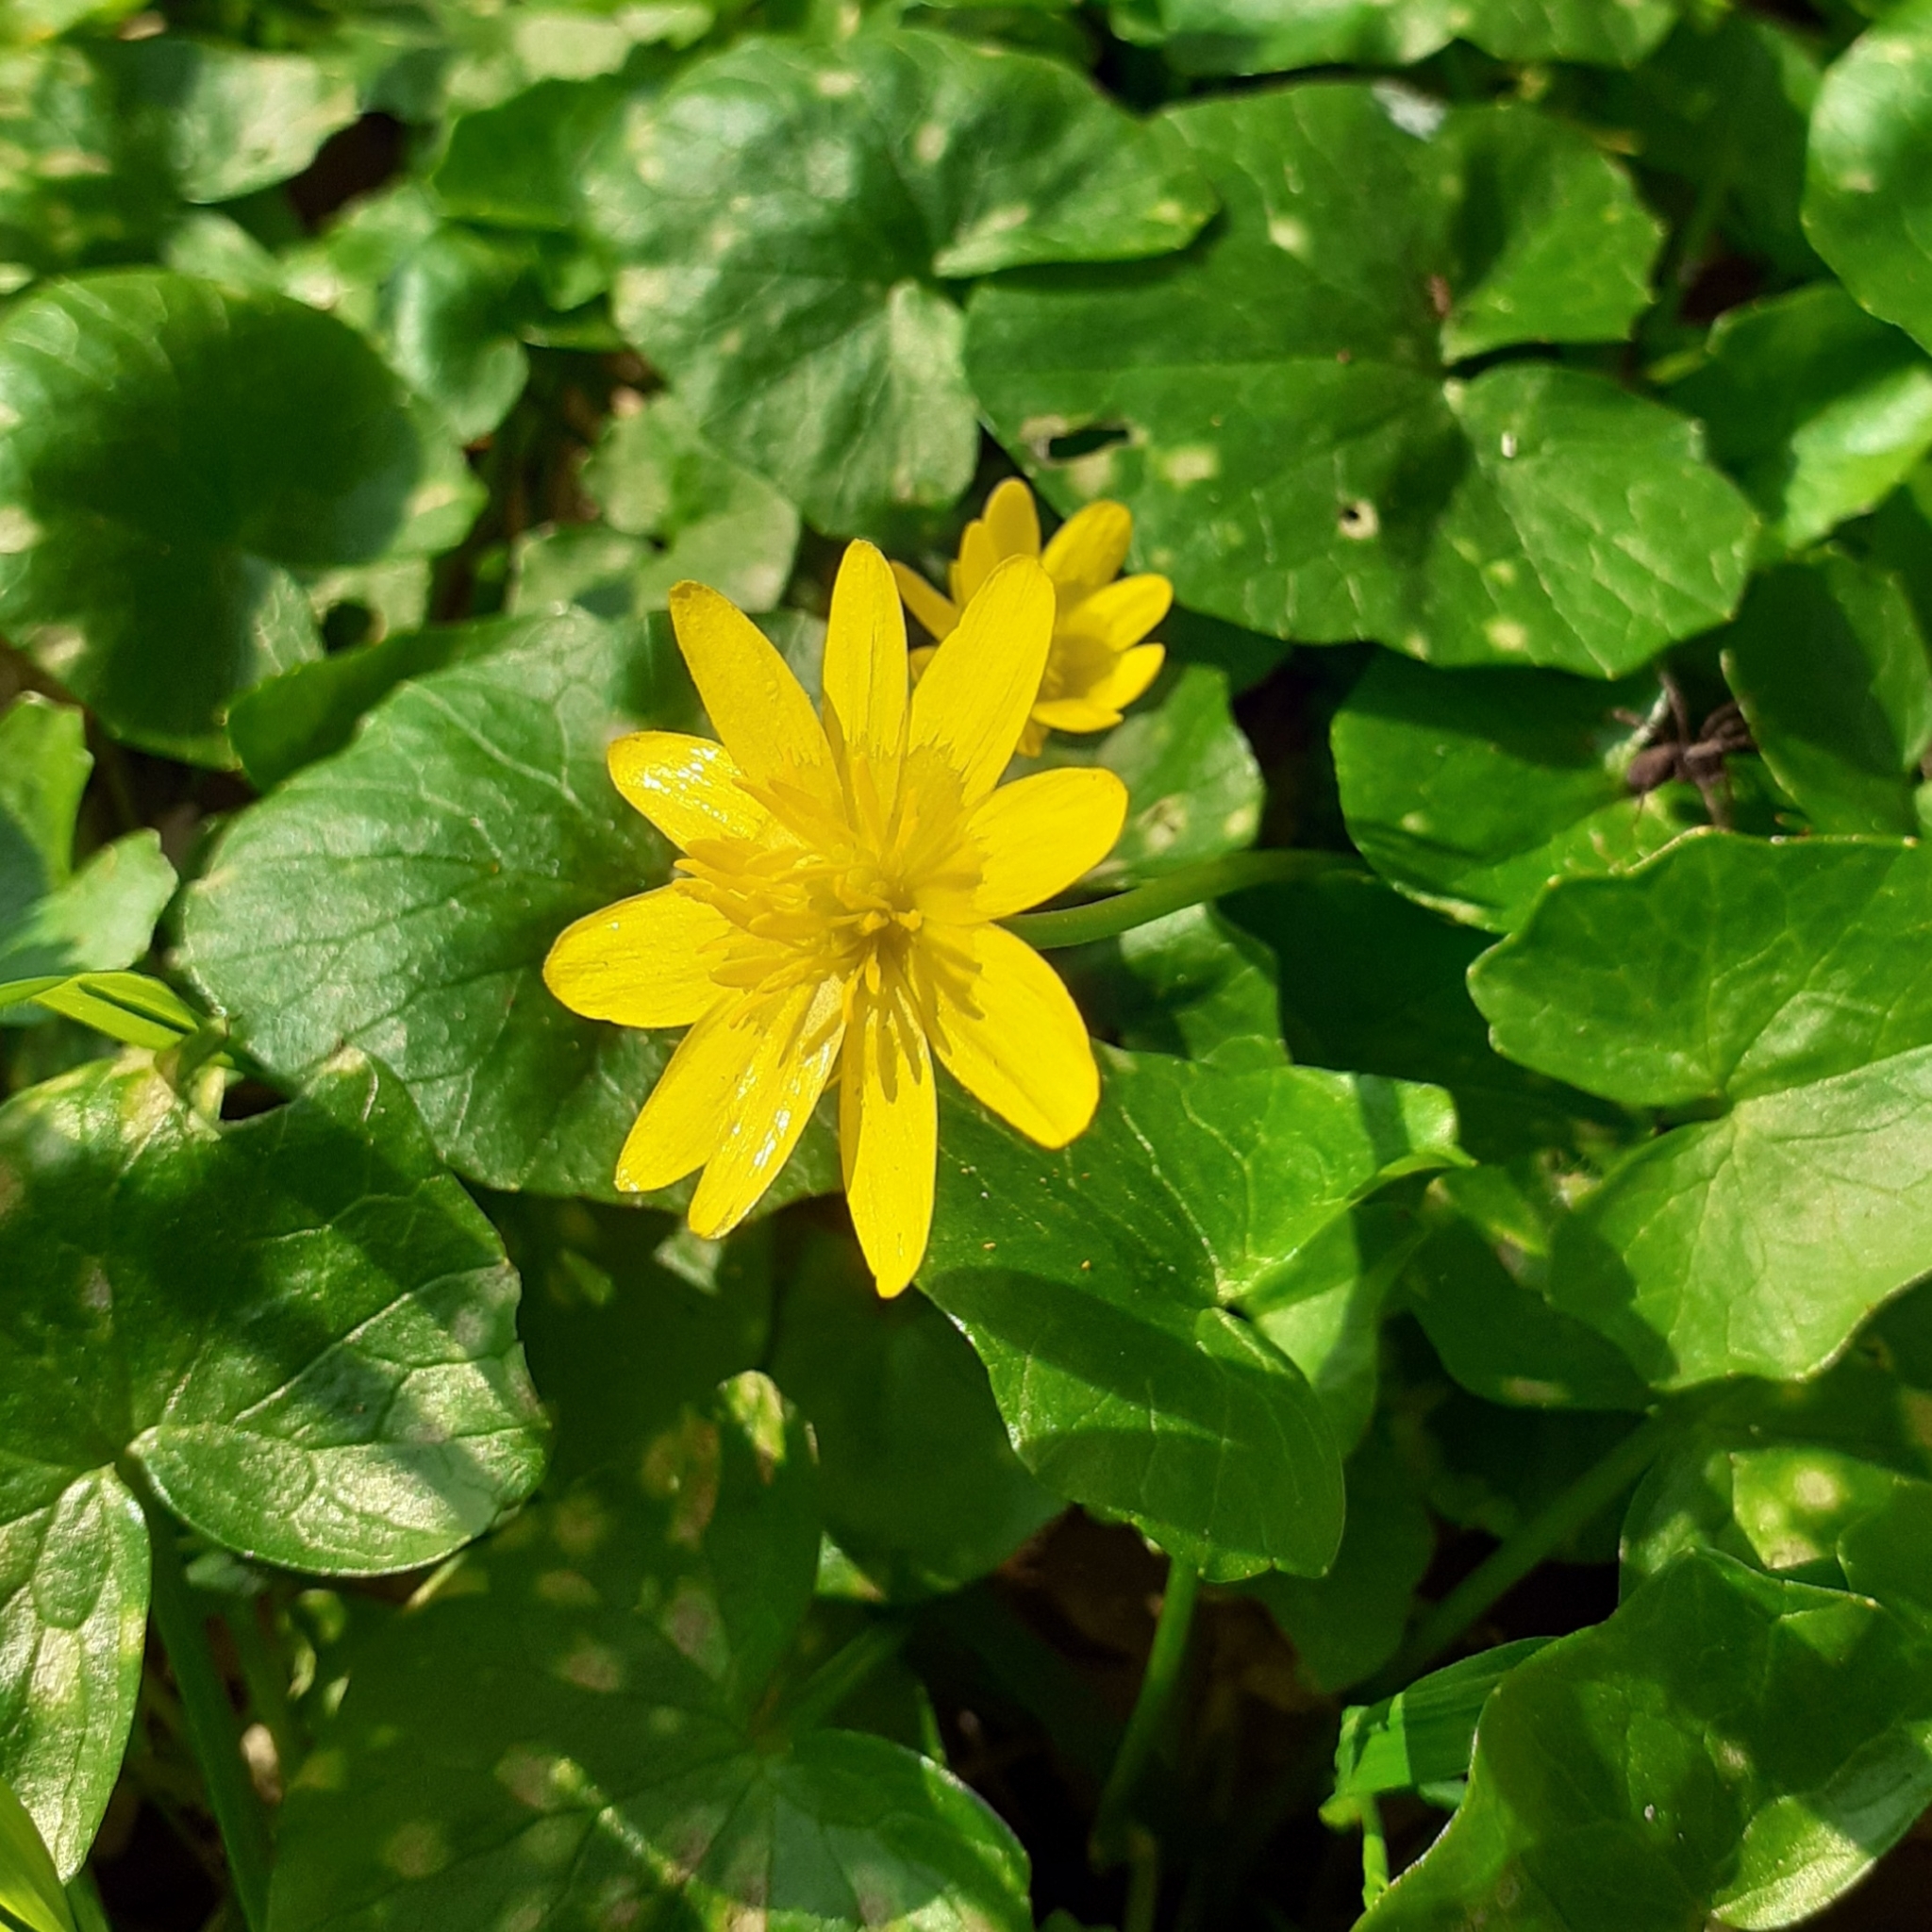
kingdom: Plantae
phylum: Tracheophyta
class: Magnoliopsida
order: Ranunculales
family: Ranunculaceae
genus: Ficaria
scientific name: Ficaria verna
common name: Lesser celandine
